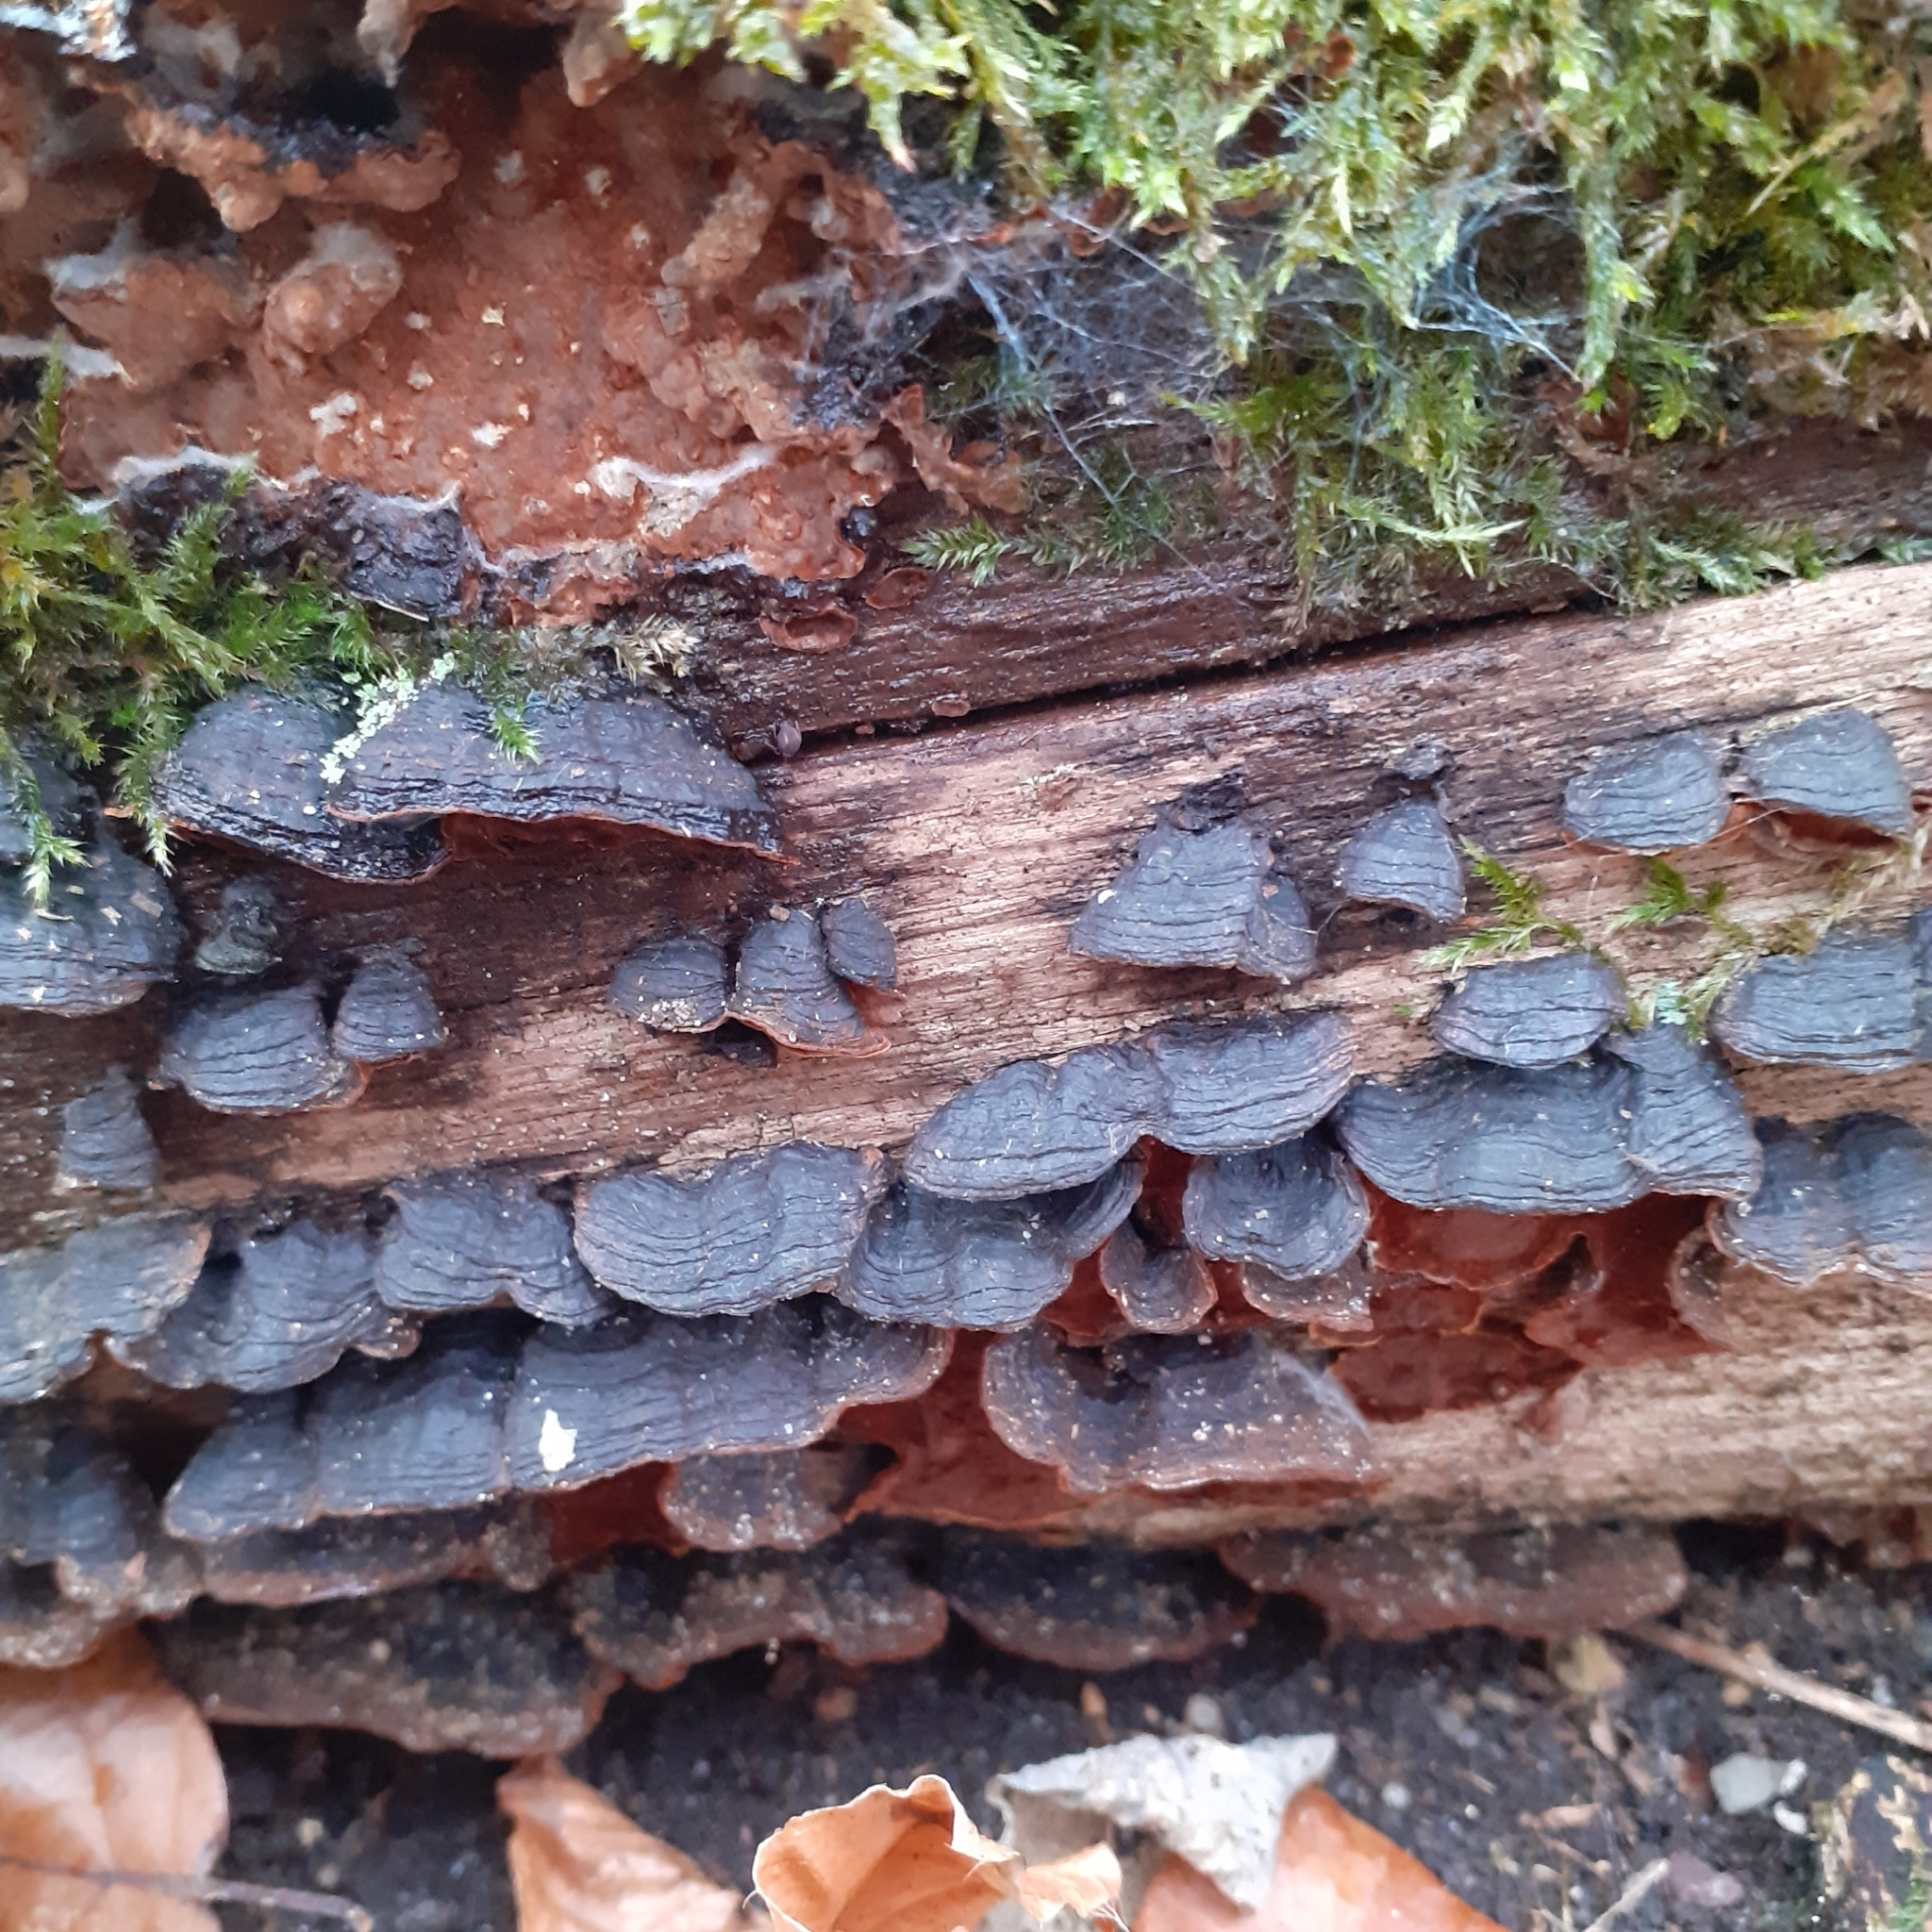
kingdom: Fungi
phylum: Basidiomycota
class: Agaricomycetes
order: Hymenochaetales
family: Hymenochaetaceae
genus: Hymenochaete
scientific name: Hymenochaete rubiginosa
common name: Oak curtain crust
